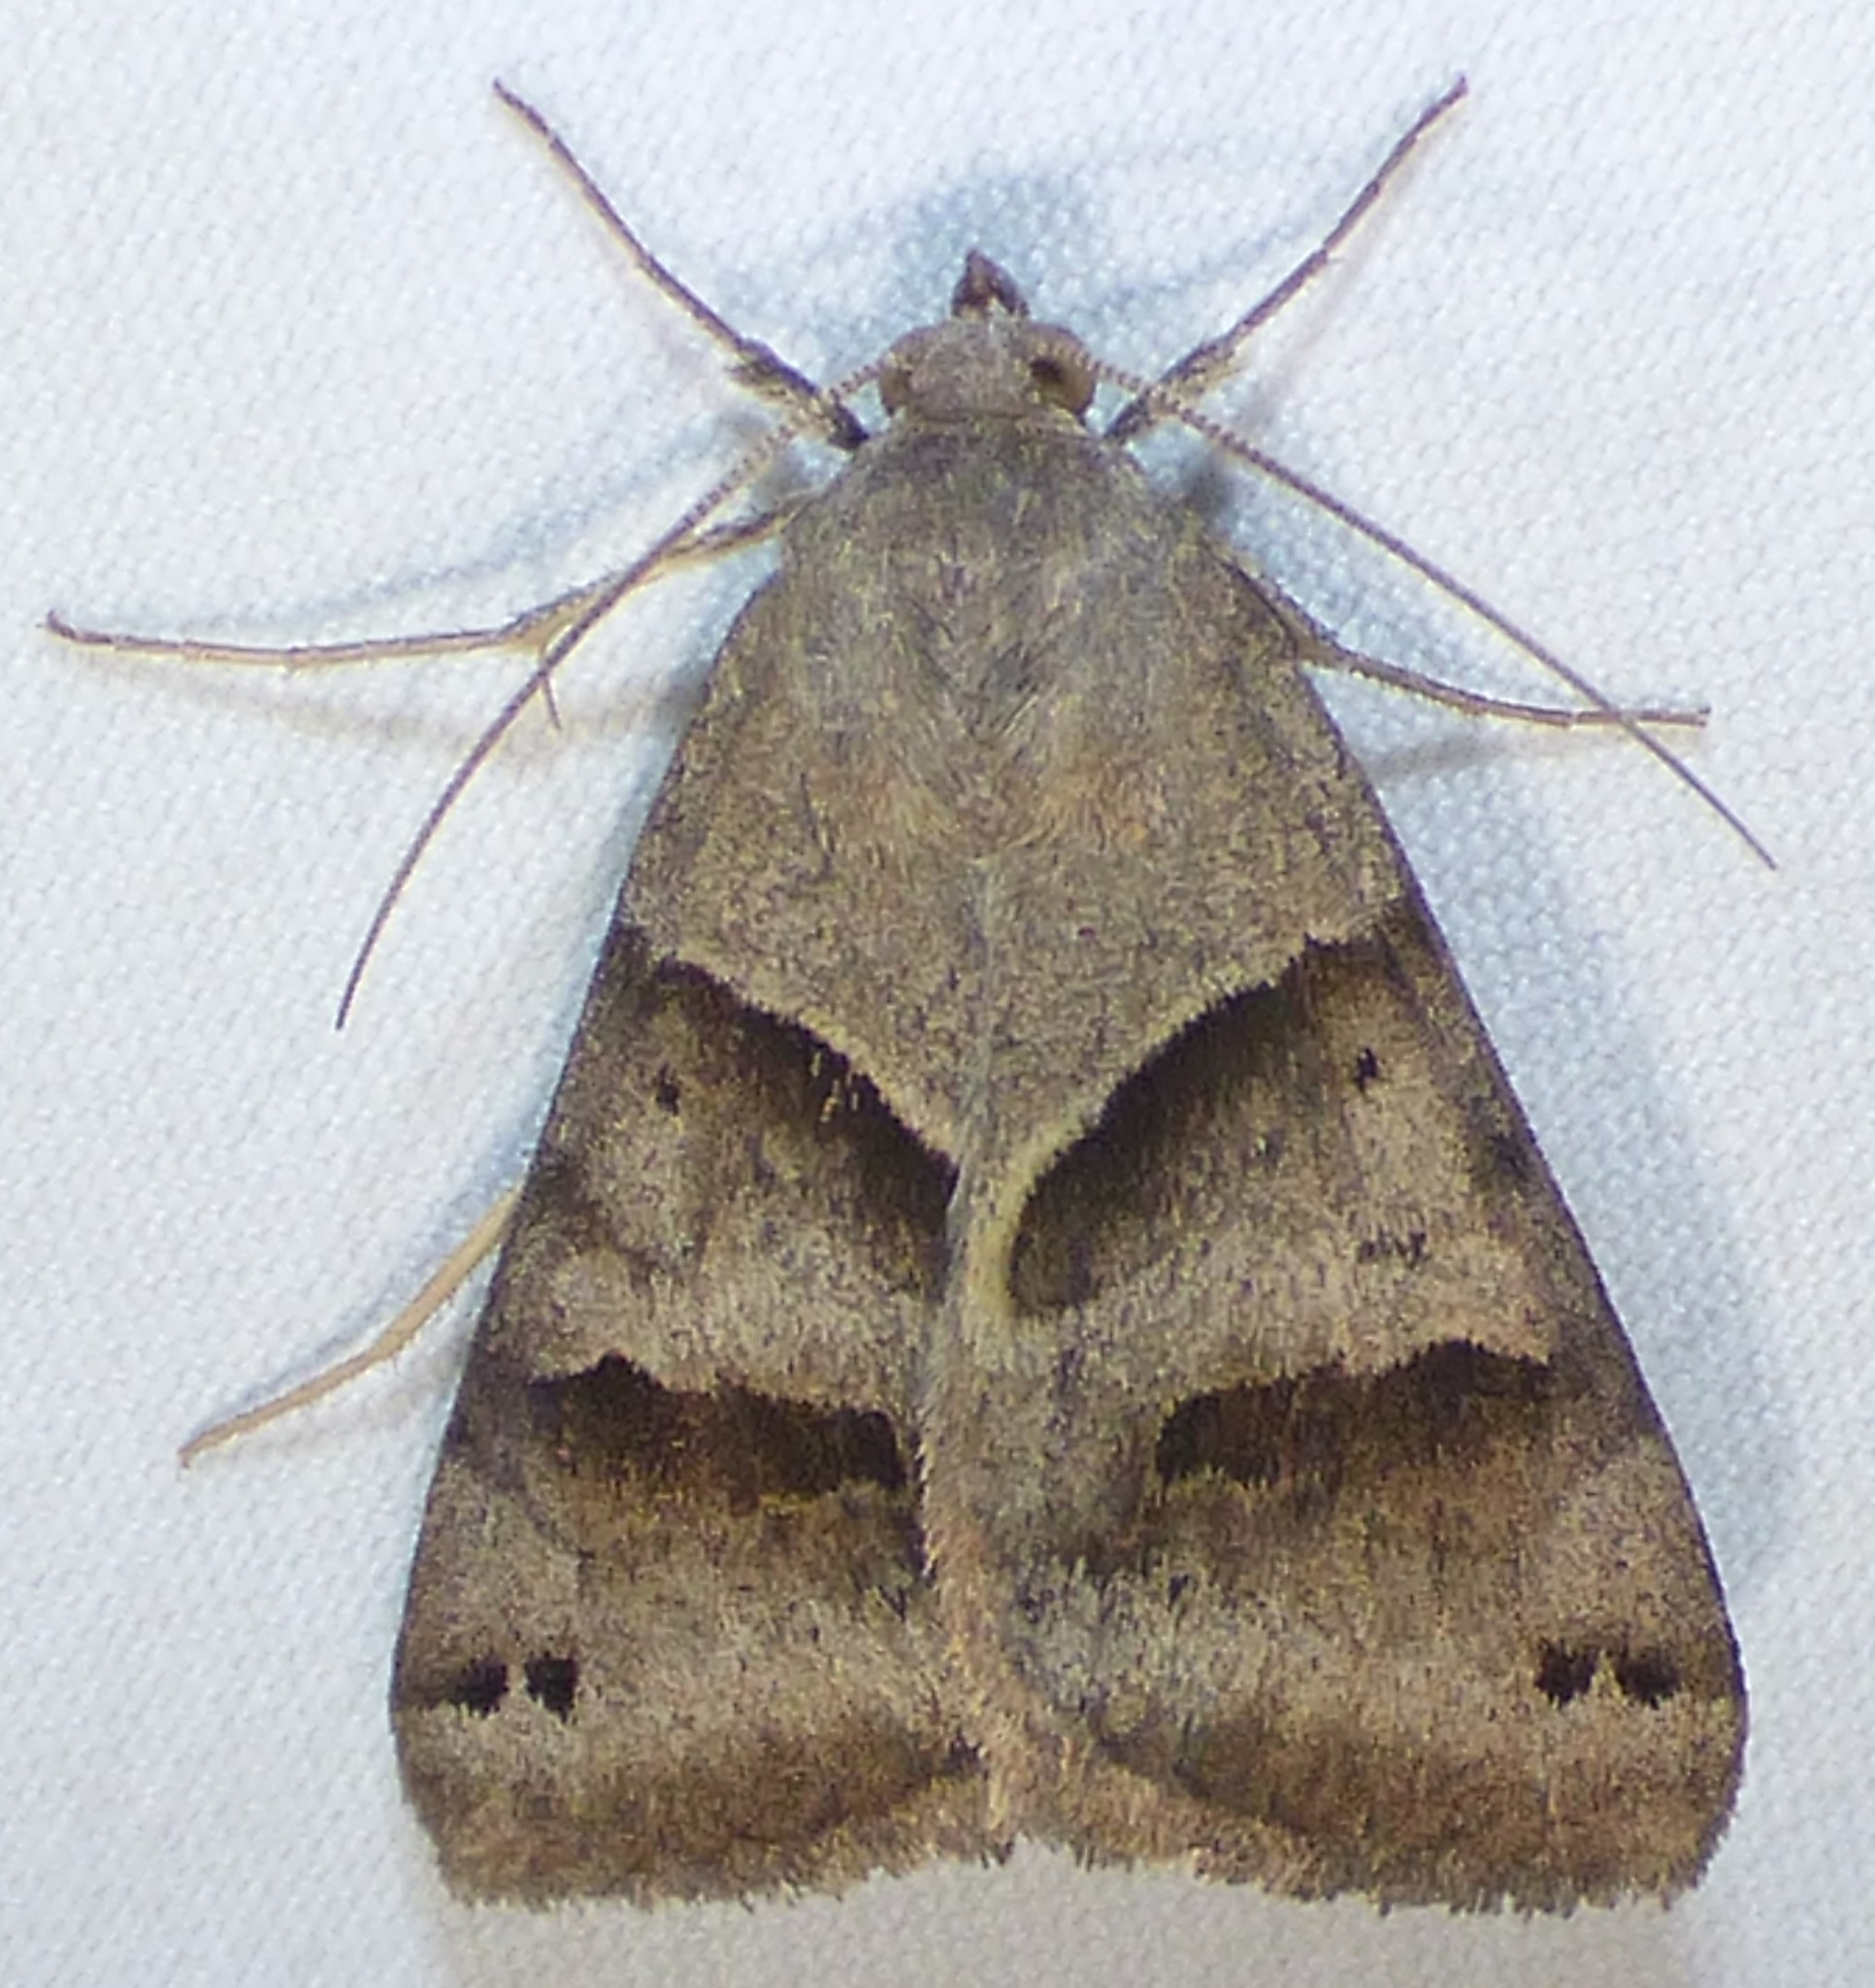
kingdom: Animalia
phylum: Arthropoda
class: Insecta
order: Lepidoptera
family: Erebidae
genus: Caenurgina
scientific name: Caenurgina erechtea
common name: Forage looper moth
